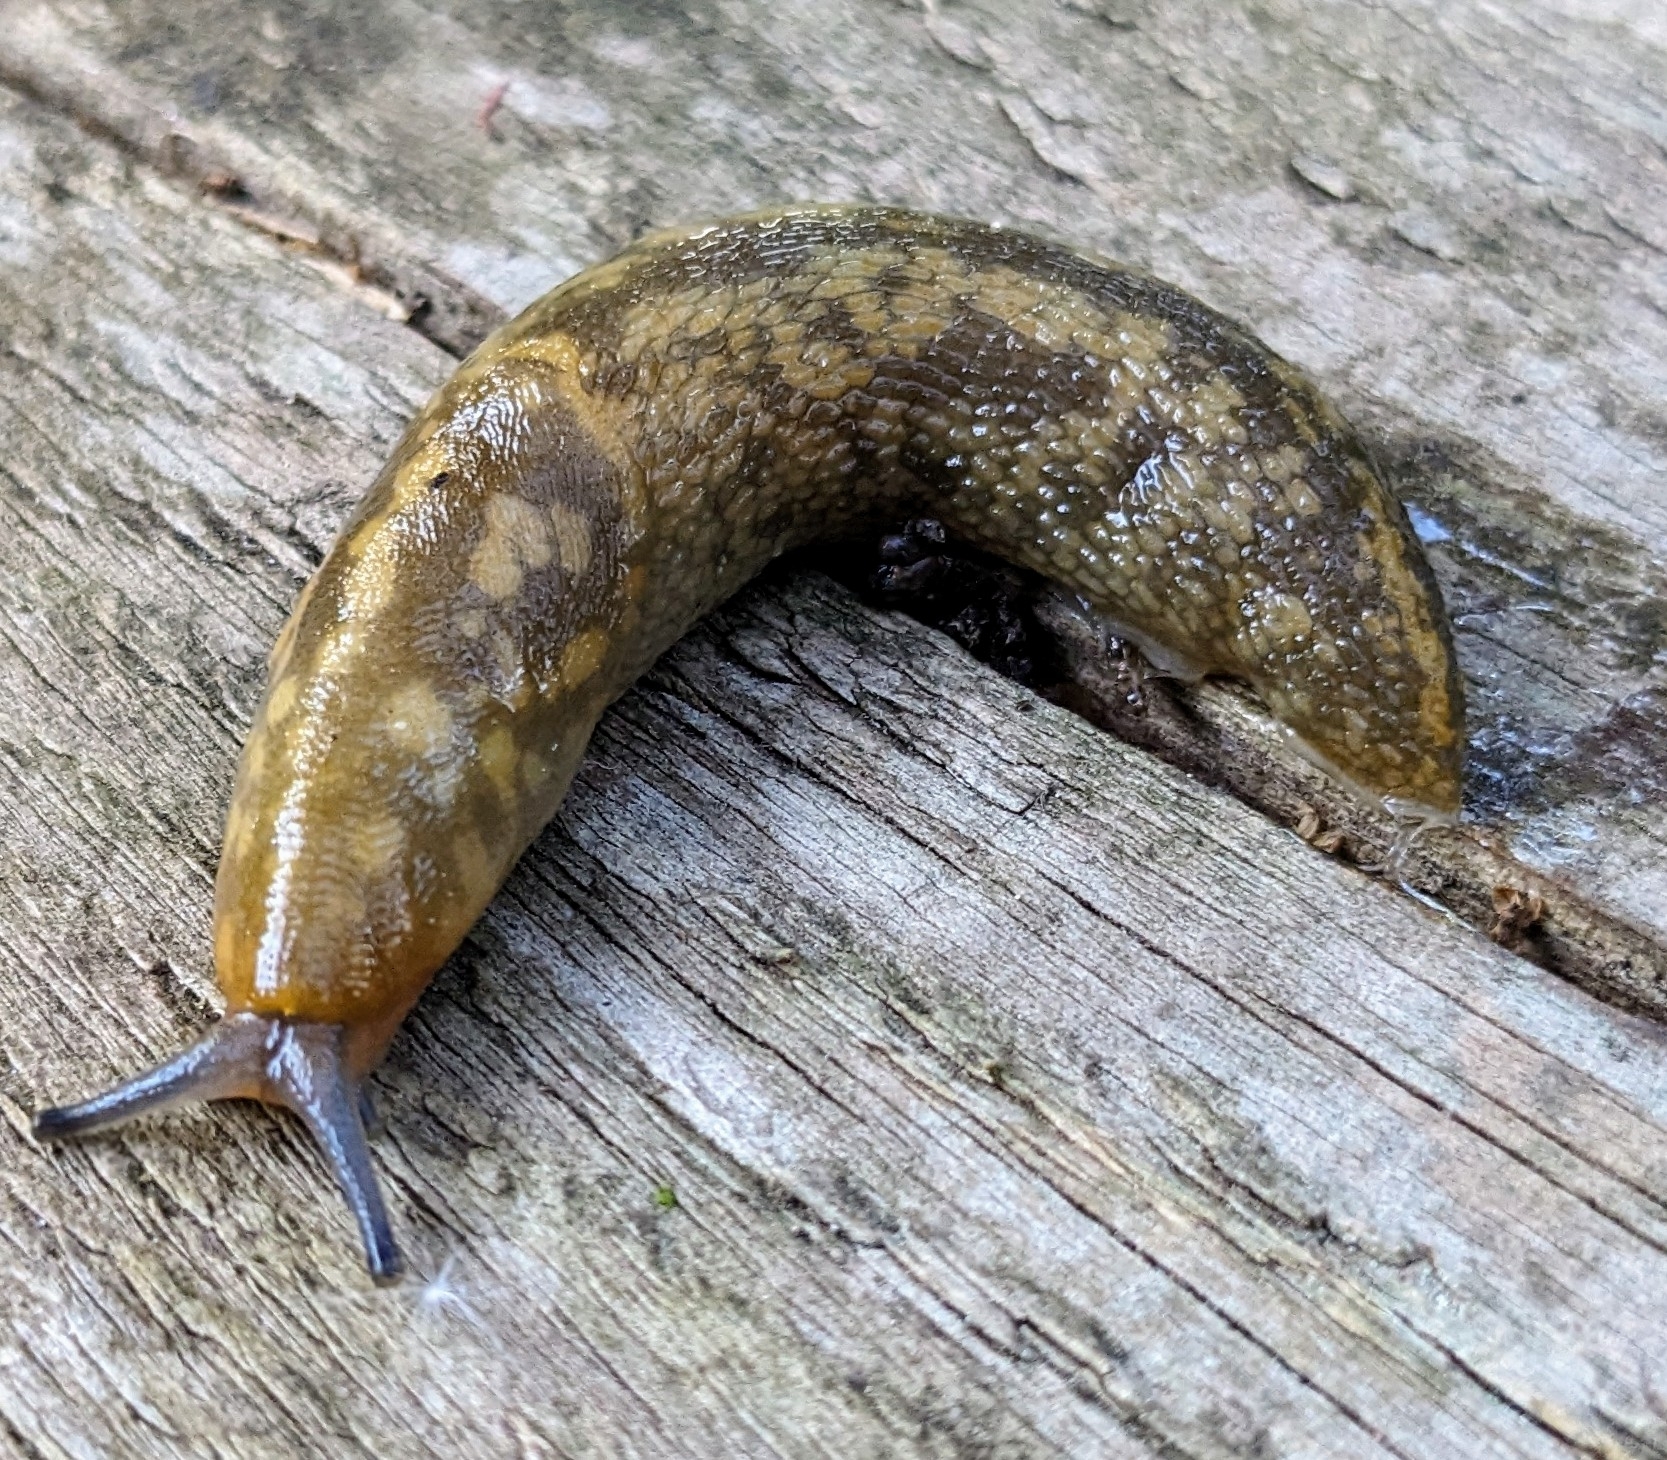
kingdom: Animalia
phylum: Mollusca
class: Gastropoda
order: Stylommatophora
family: Limacidae
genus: Limacus
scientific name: Limacus maculatus
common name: Irish yellow slug
